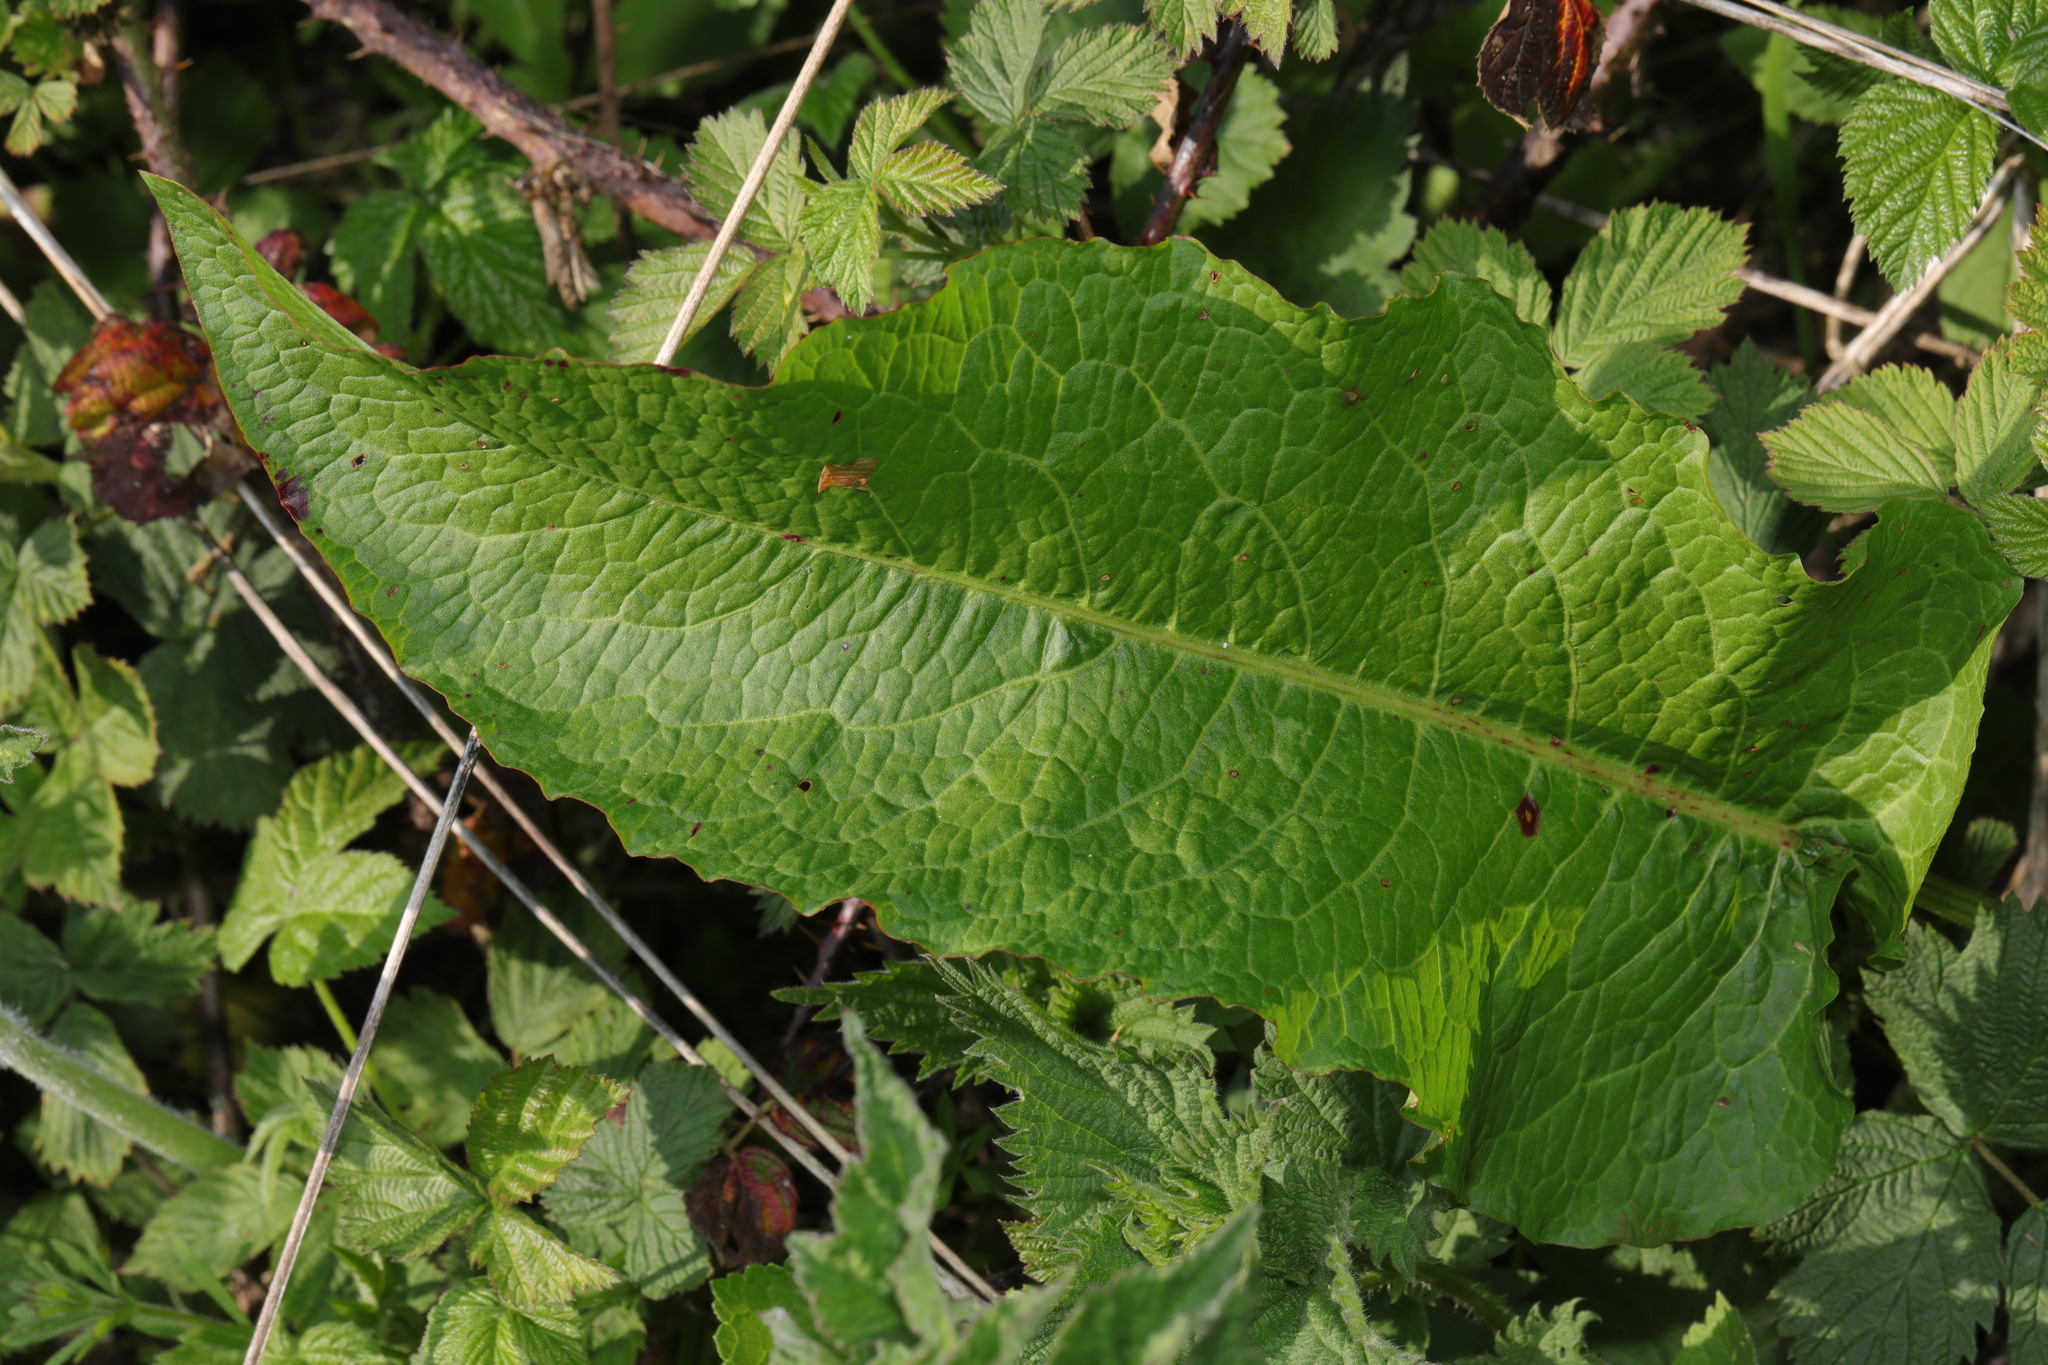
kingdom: Plantae
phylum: Tracheophyta
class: Magnoliopsida
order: Caryophyllales
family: Polygonaceae
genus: Rumex
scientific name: Rumex obtusifolius
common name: Bitter dock
